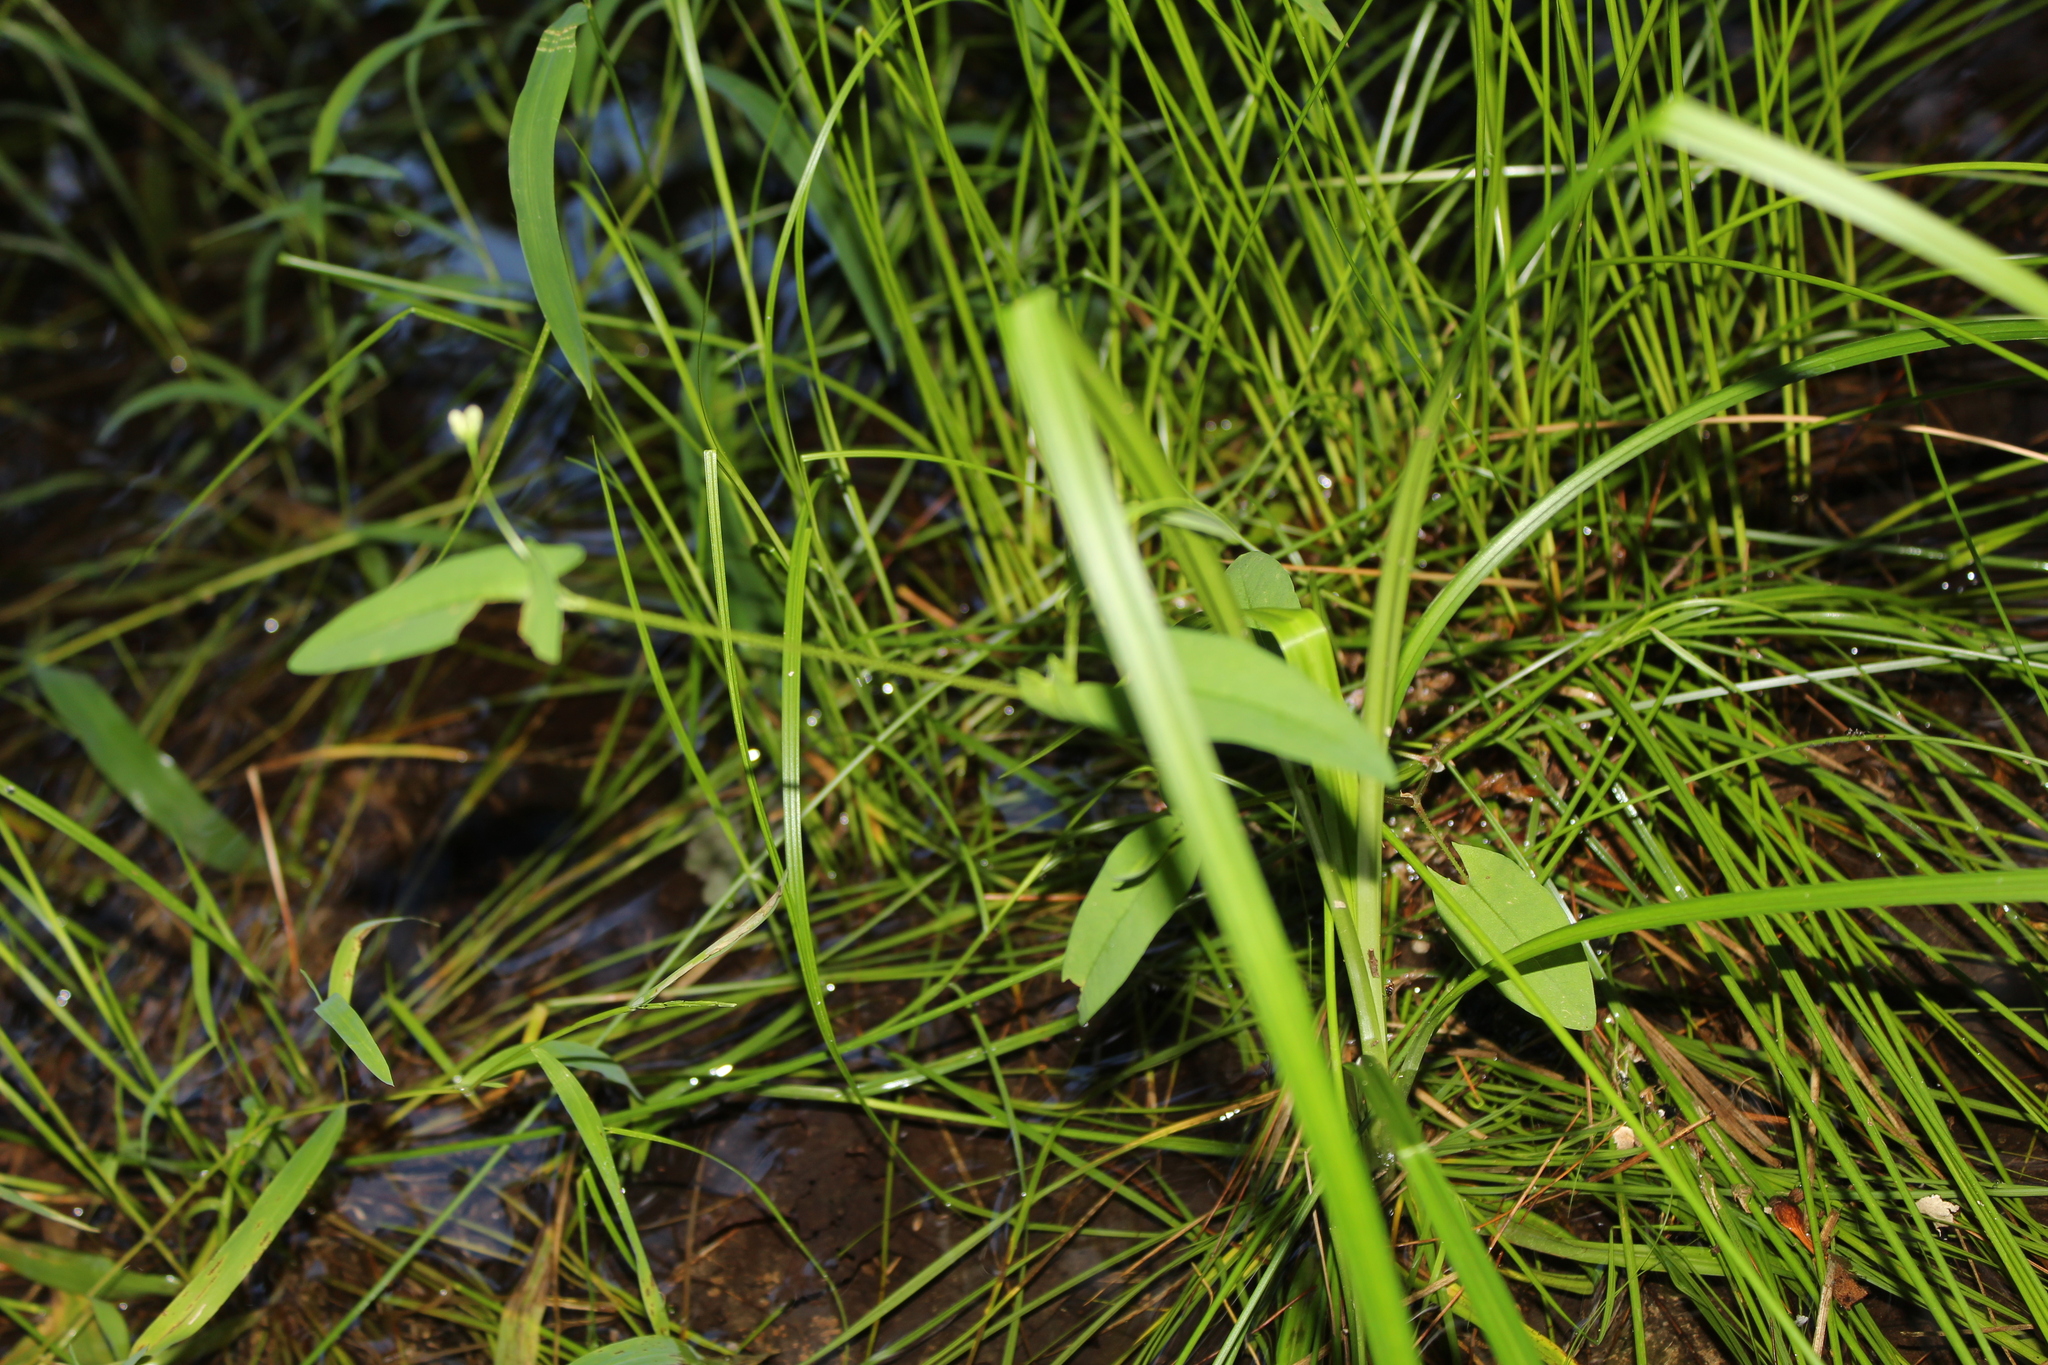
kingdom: Plantae
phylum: Tracheophyta
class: Magnoliopsida
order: Caryophyllales
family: Polygonaceae
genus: Persicaria
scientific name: Persicaria sagittata
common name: American tearthumb
